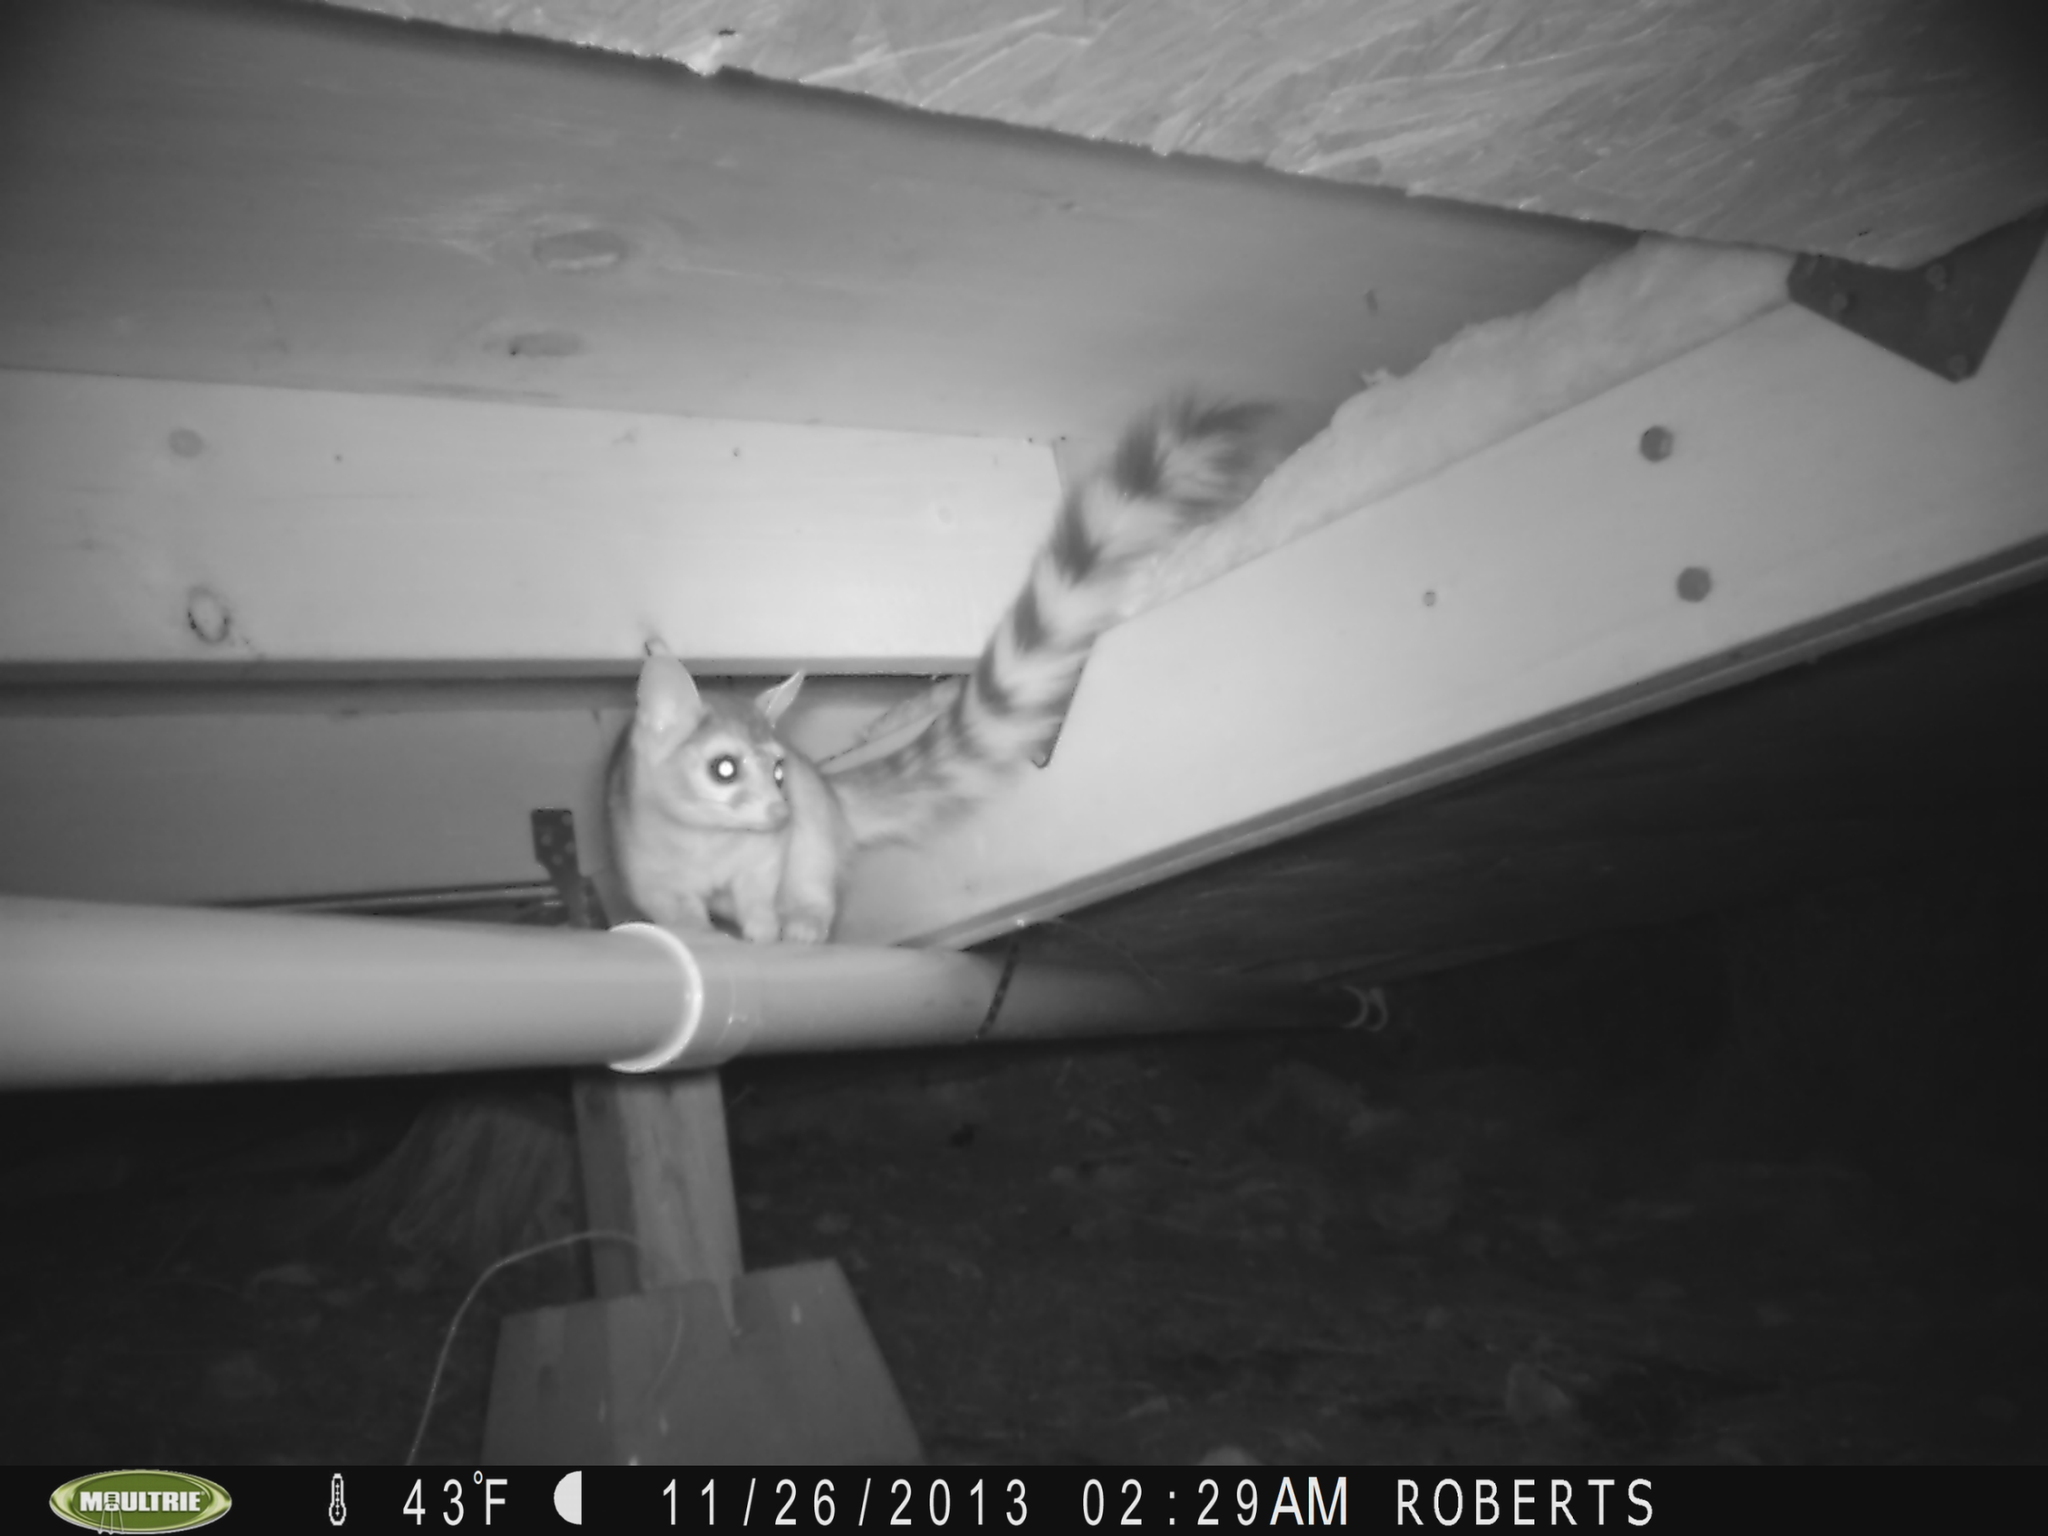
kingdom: Animalia
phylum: Chordata
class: Mammalia
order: Carnivora
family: Procyonidae
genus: Bassariscus
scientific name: Bassariscus astutus
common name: Ringtail
